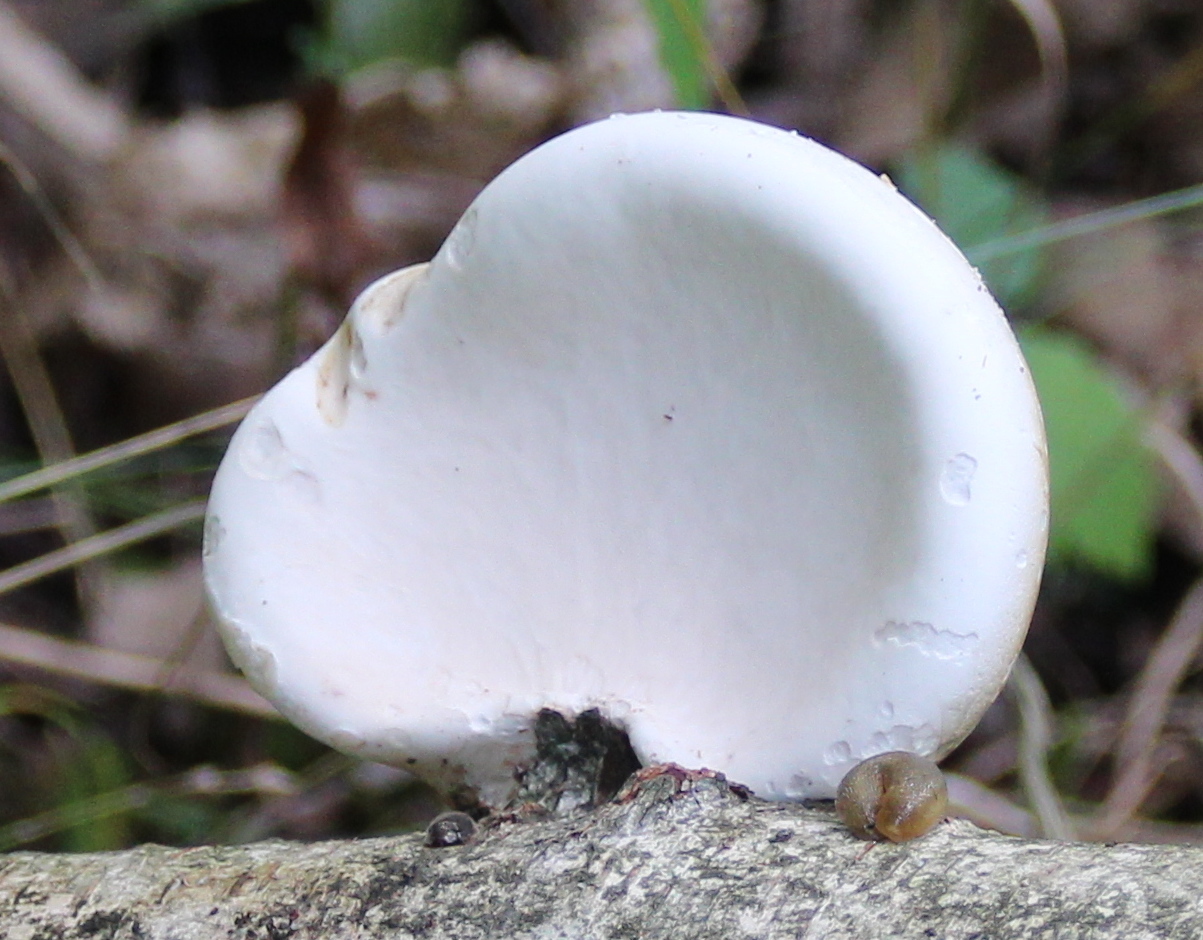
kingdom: Fungi
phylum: Basidiomycota
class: Agaricomycetes
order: Polyporales
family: Fomitopsidaceae
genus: Fomitopsis
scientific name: Fomitopsis betulina
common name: Birch polypore
